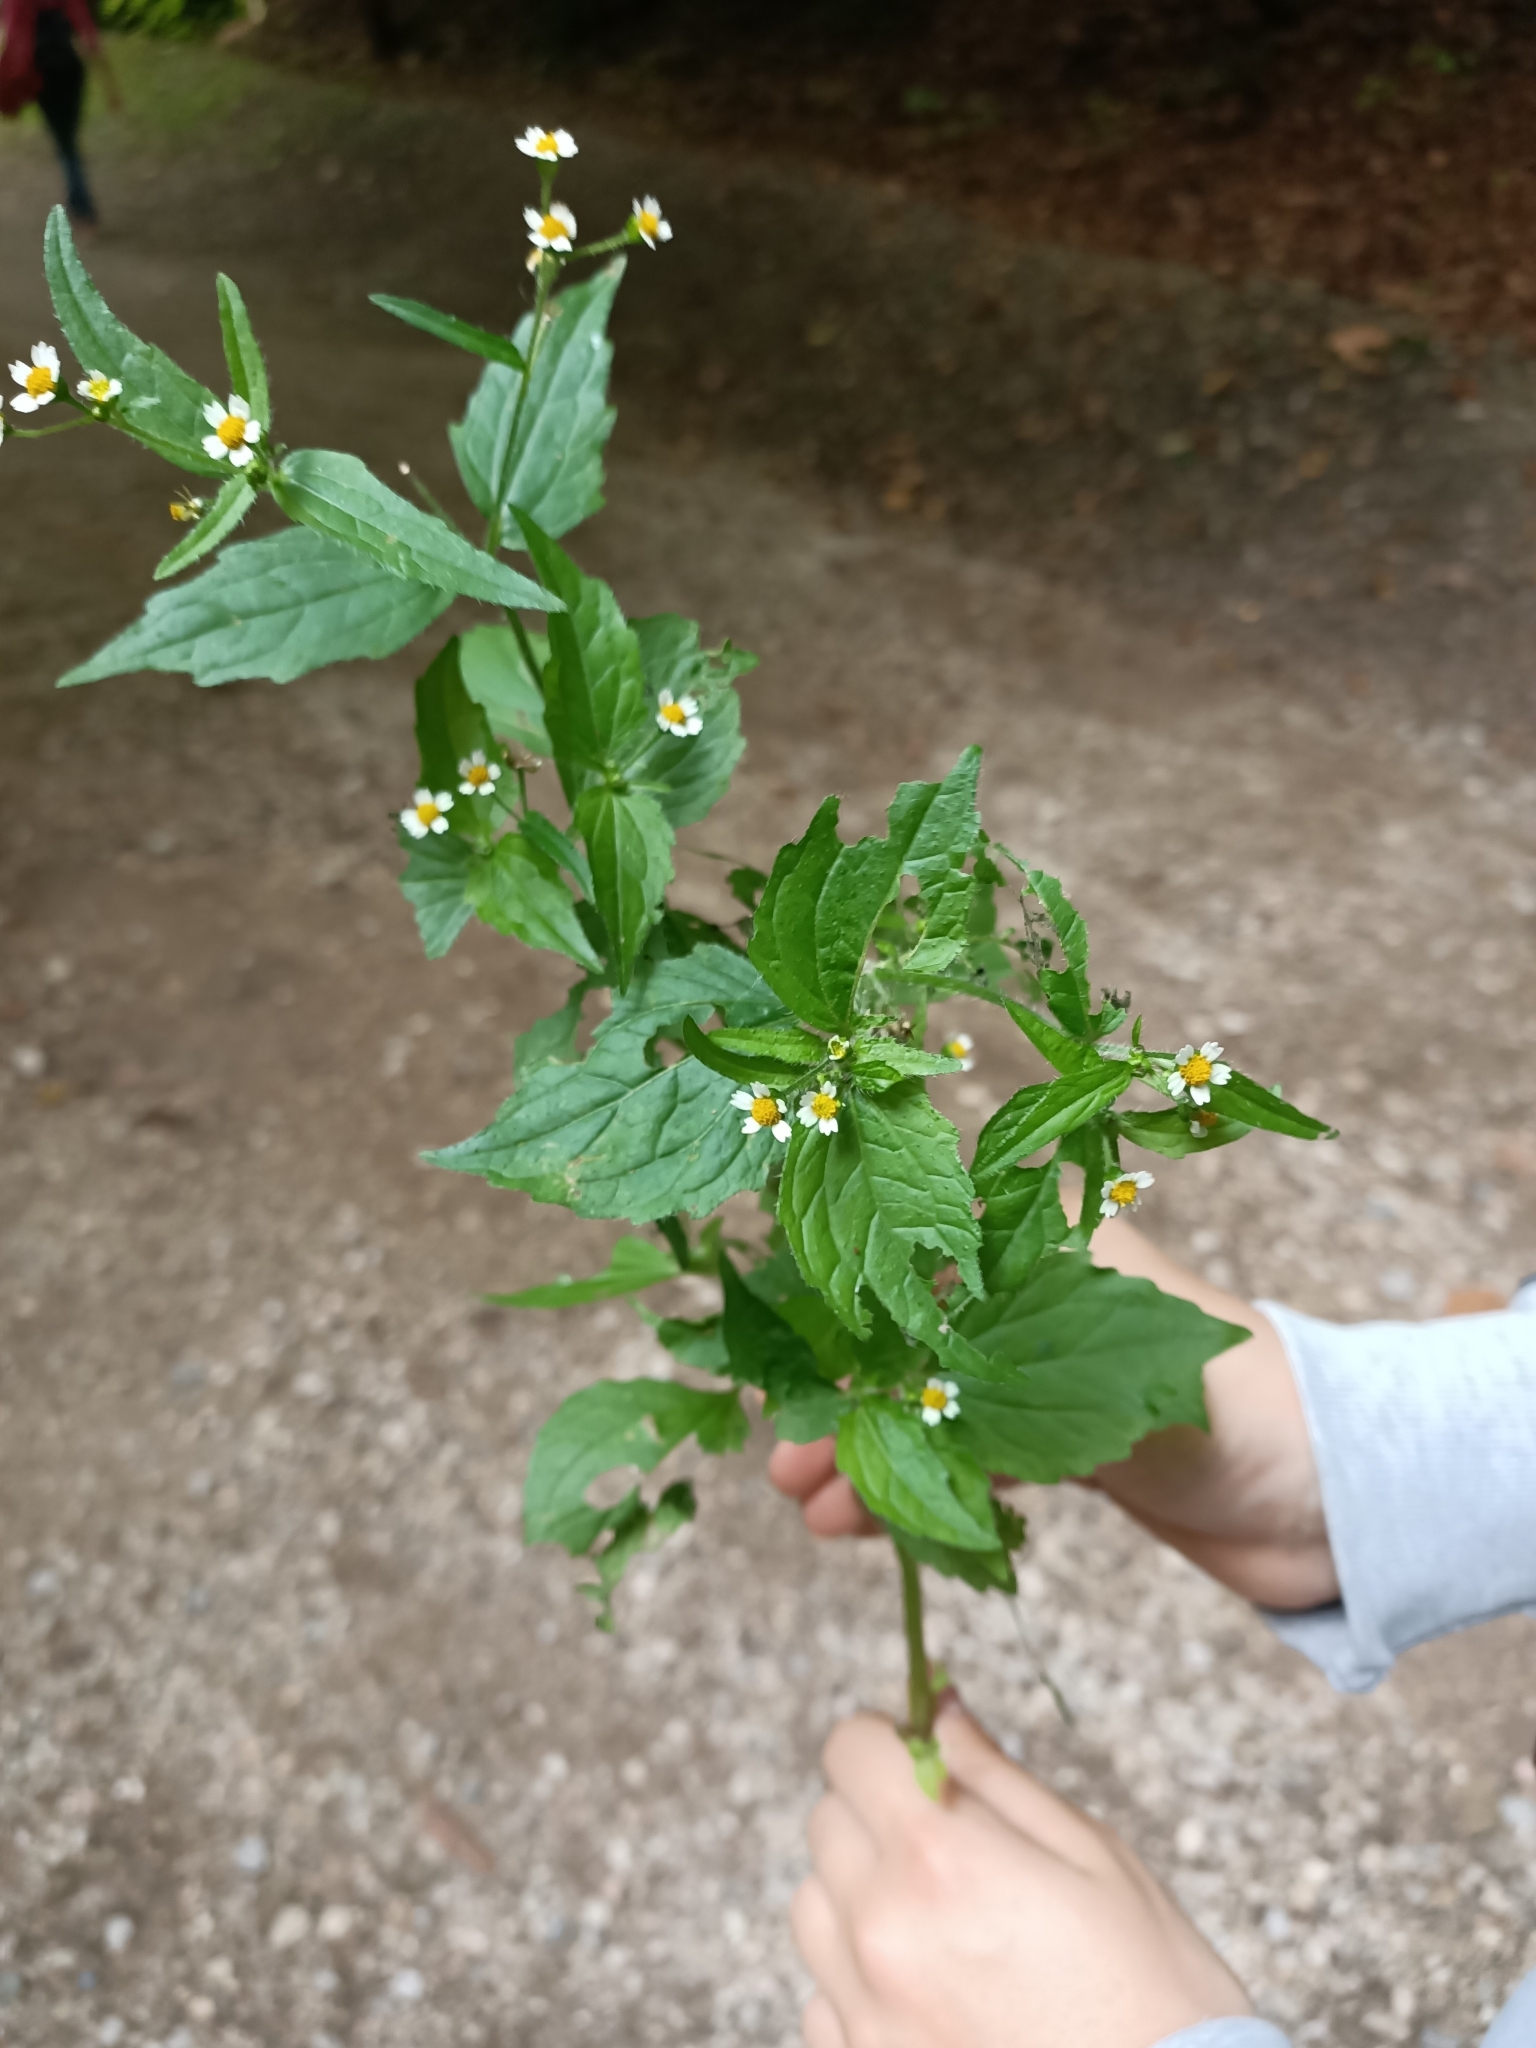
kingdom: Plantae
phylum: Tracheophyta
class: Magnoliopsida
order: Asterales
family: Asteraceae
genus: Galinsoga
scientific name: Galinsoga quadriradiata
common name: Shaggy soldier
